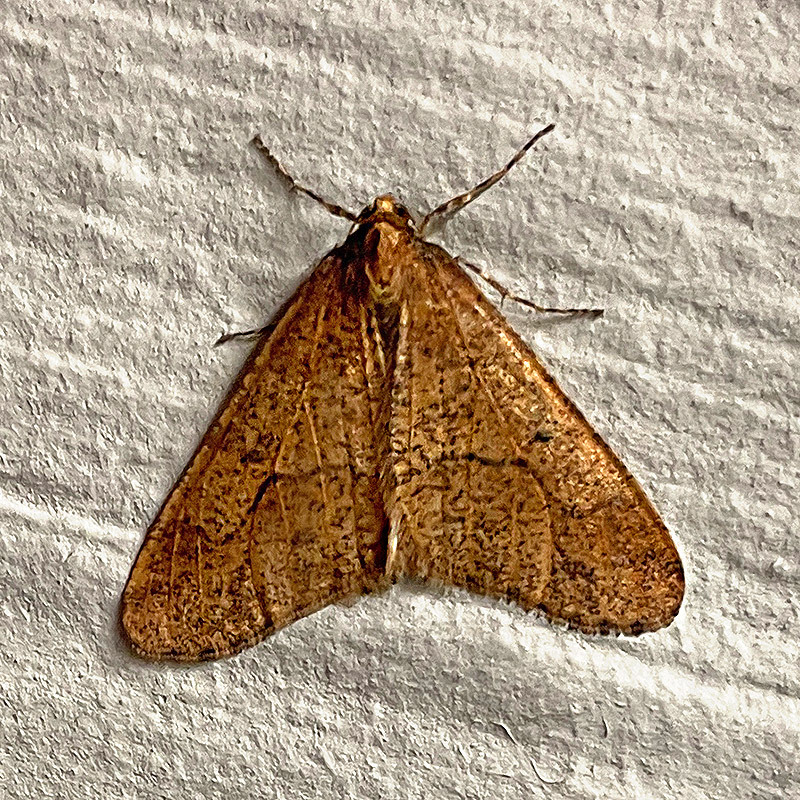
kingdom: Animalia
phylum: Arthropoda
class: Insecta
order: Lepidoptera
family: Geometridae
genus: Erannis
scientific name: Erannis defoliaria
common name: Mottled umber
